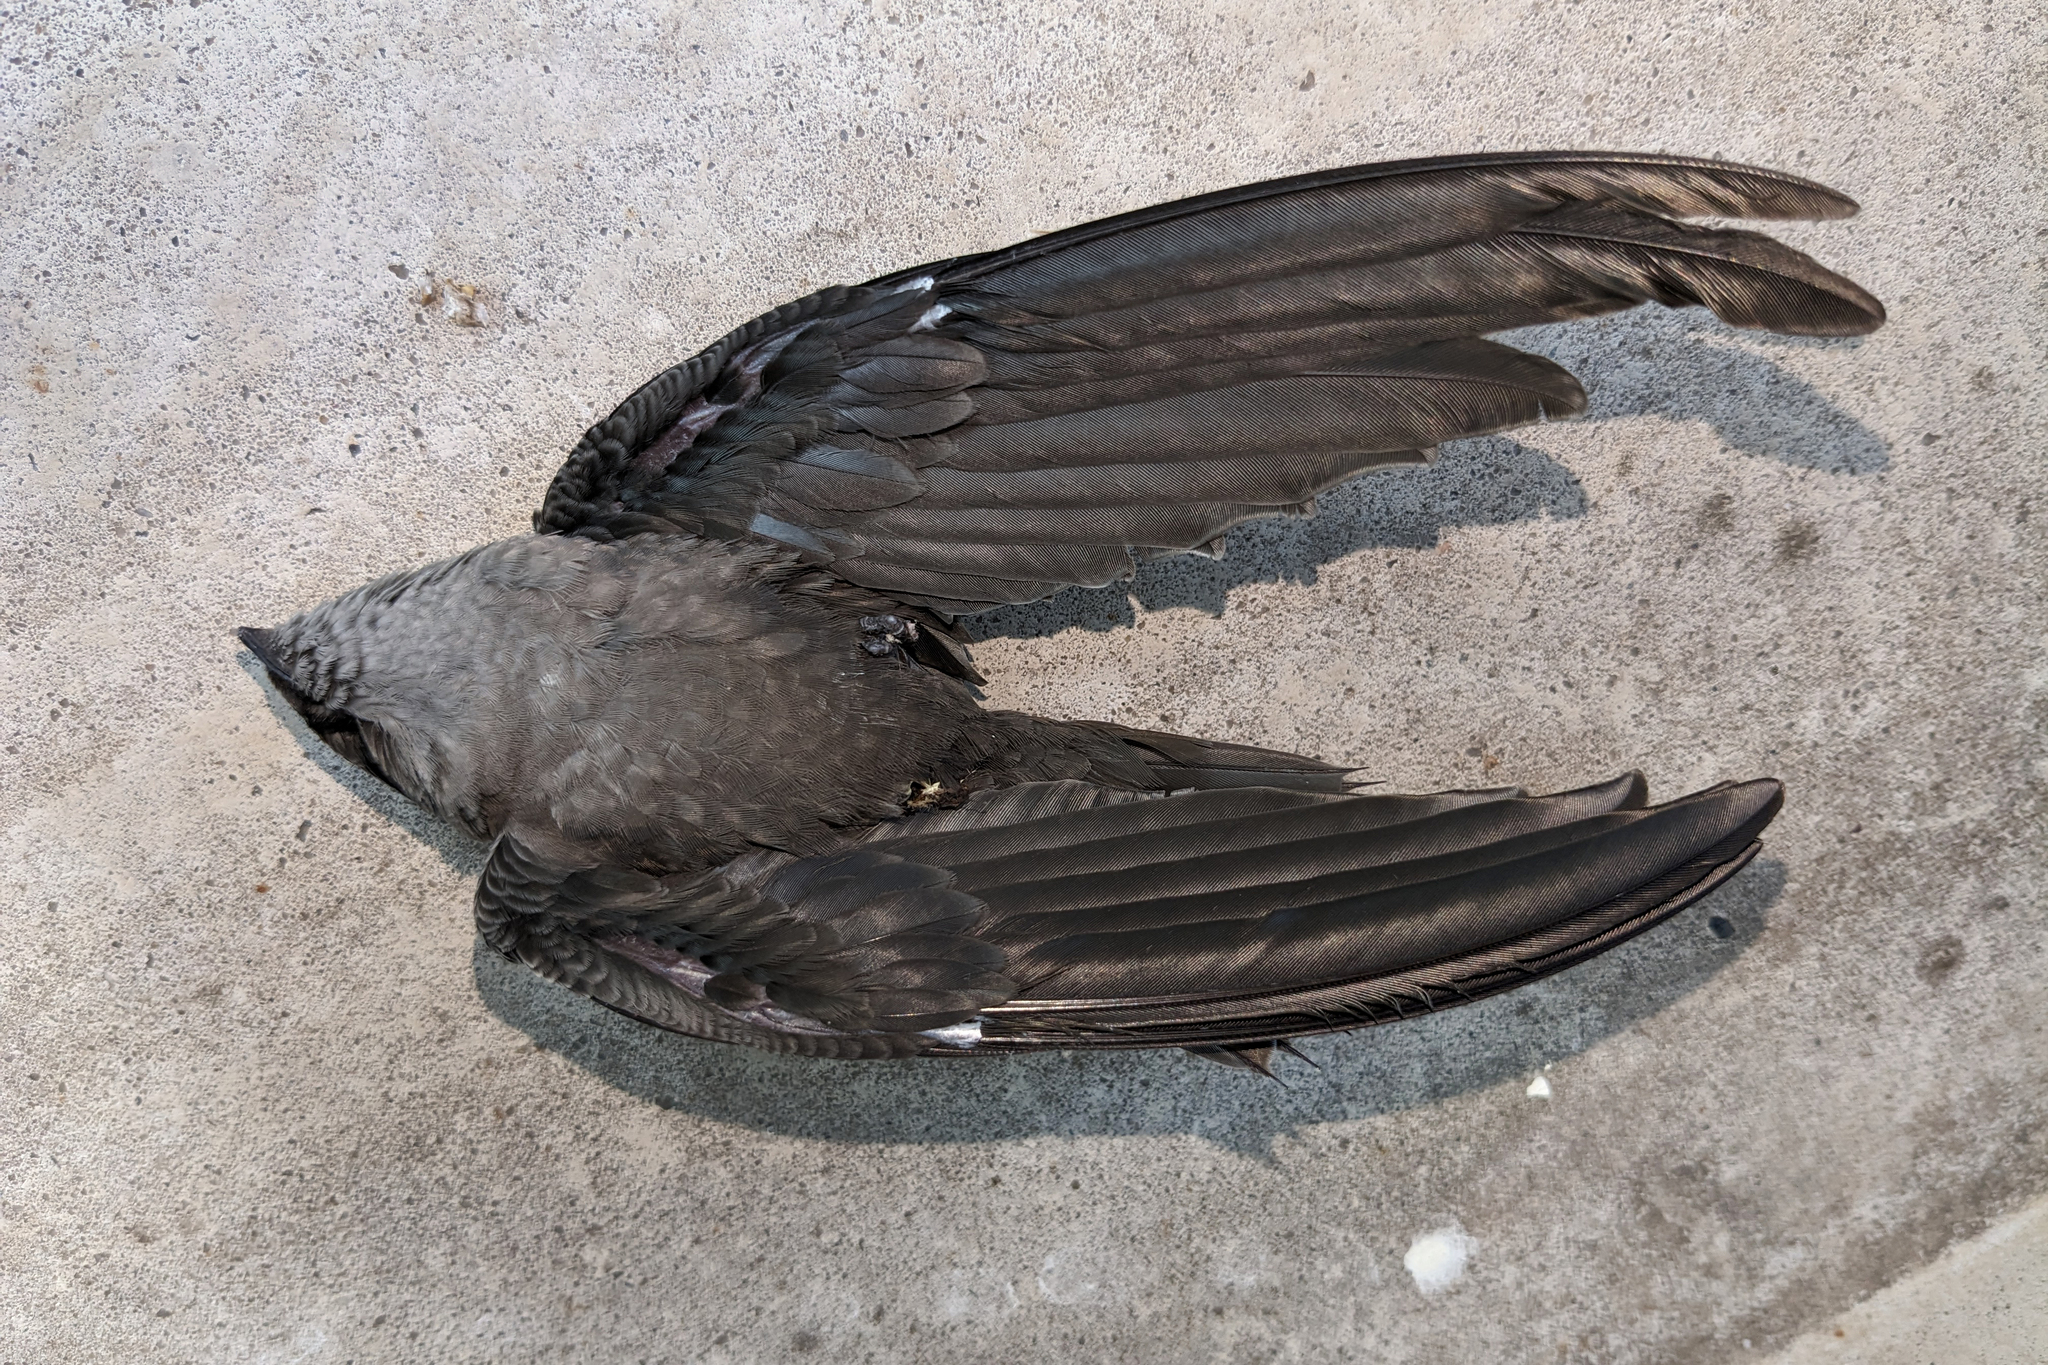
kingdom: Animalia
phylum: Chordata
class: Aves
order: Apodiformes
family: Apodidae
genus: Chaetura
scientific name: Chaetura pelagica
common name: Chimney swift
